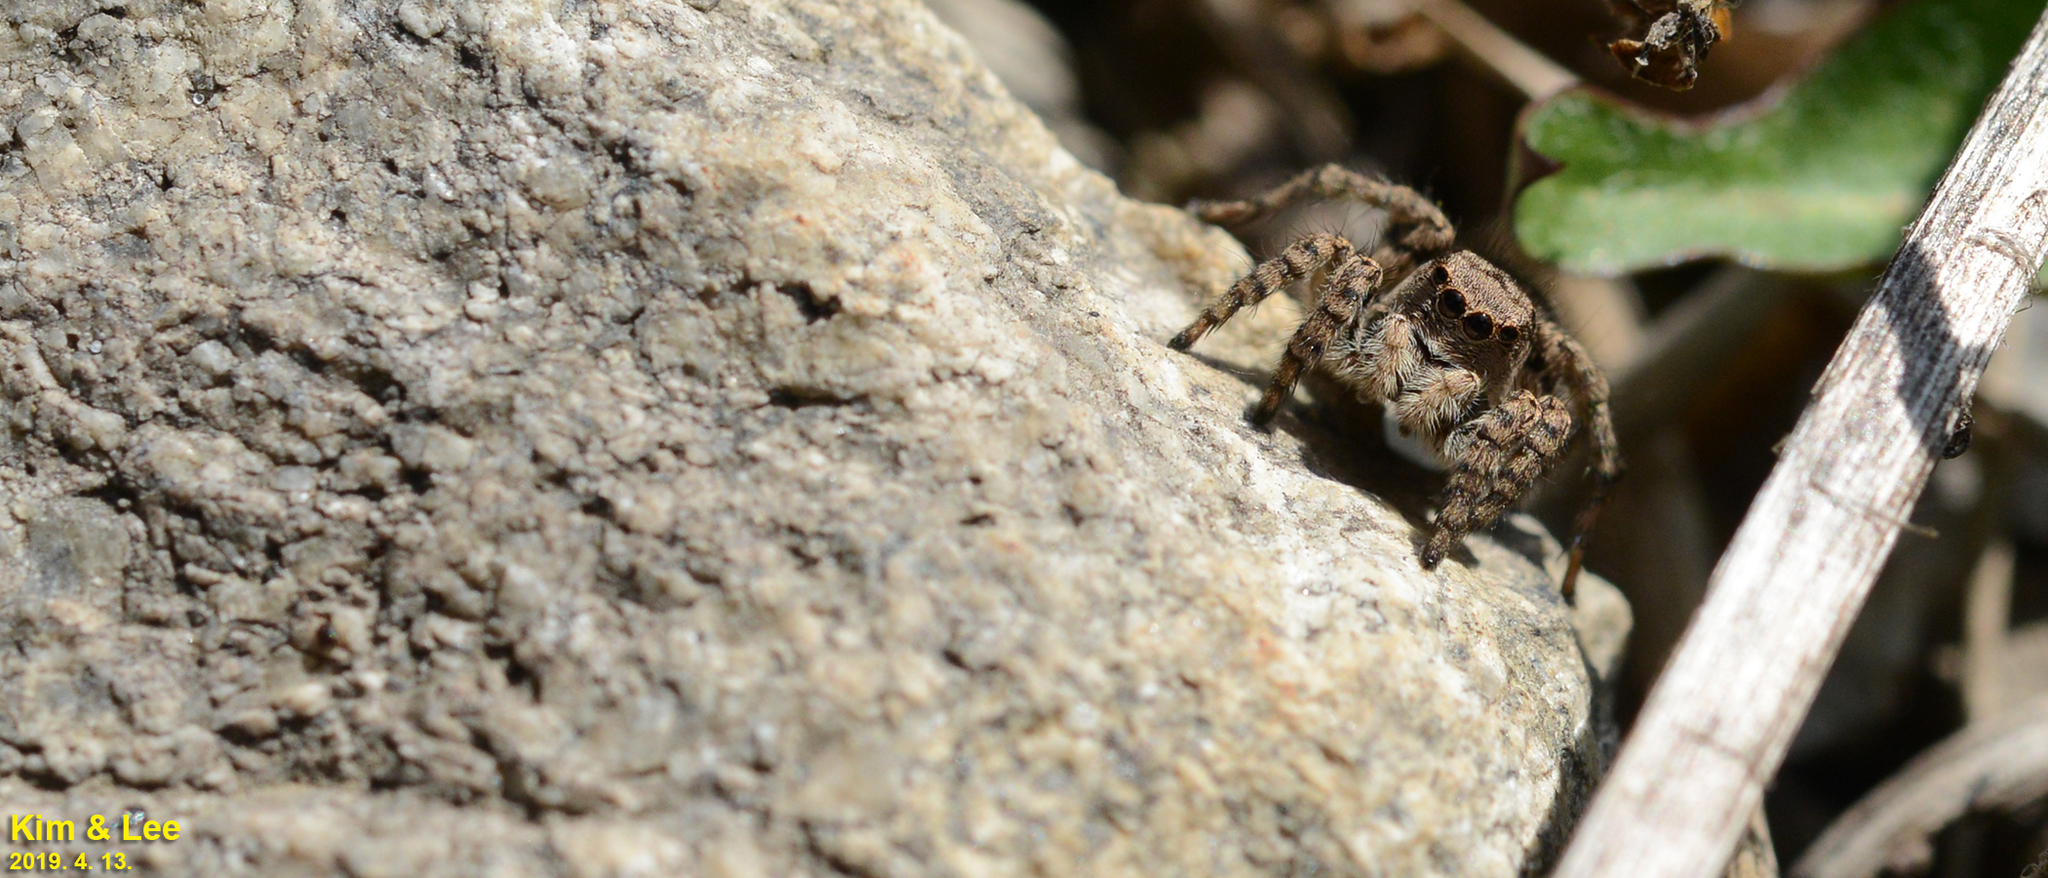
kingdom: Animalia
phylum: Arthropoda
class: Arachnida
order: Araneae
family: Salticidae
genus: Asianellus
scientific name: Asianellus festivus
